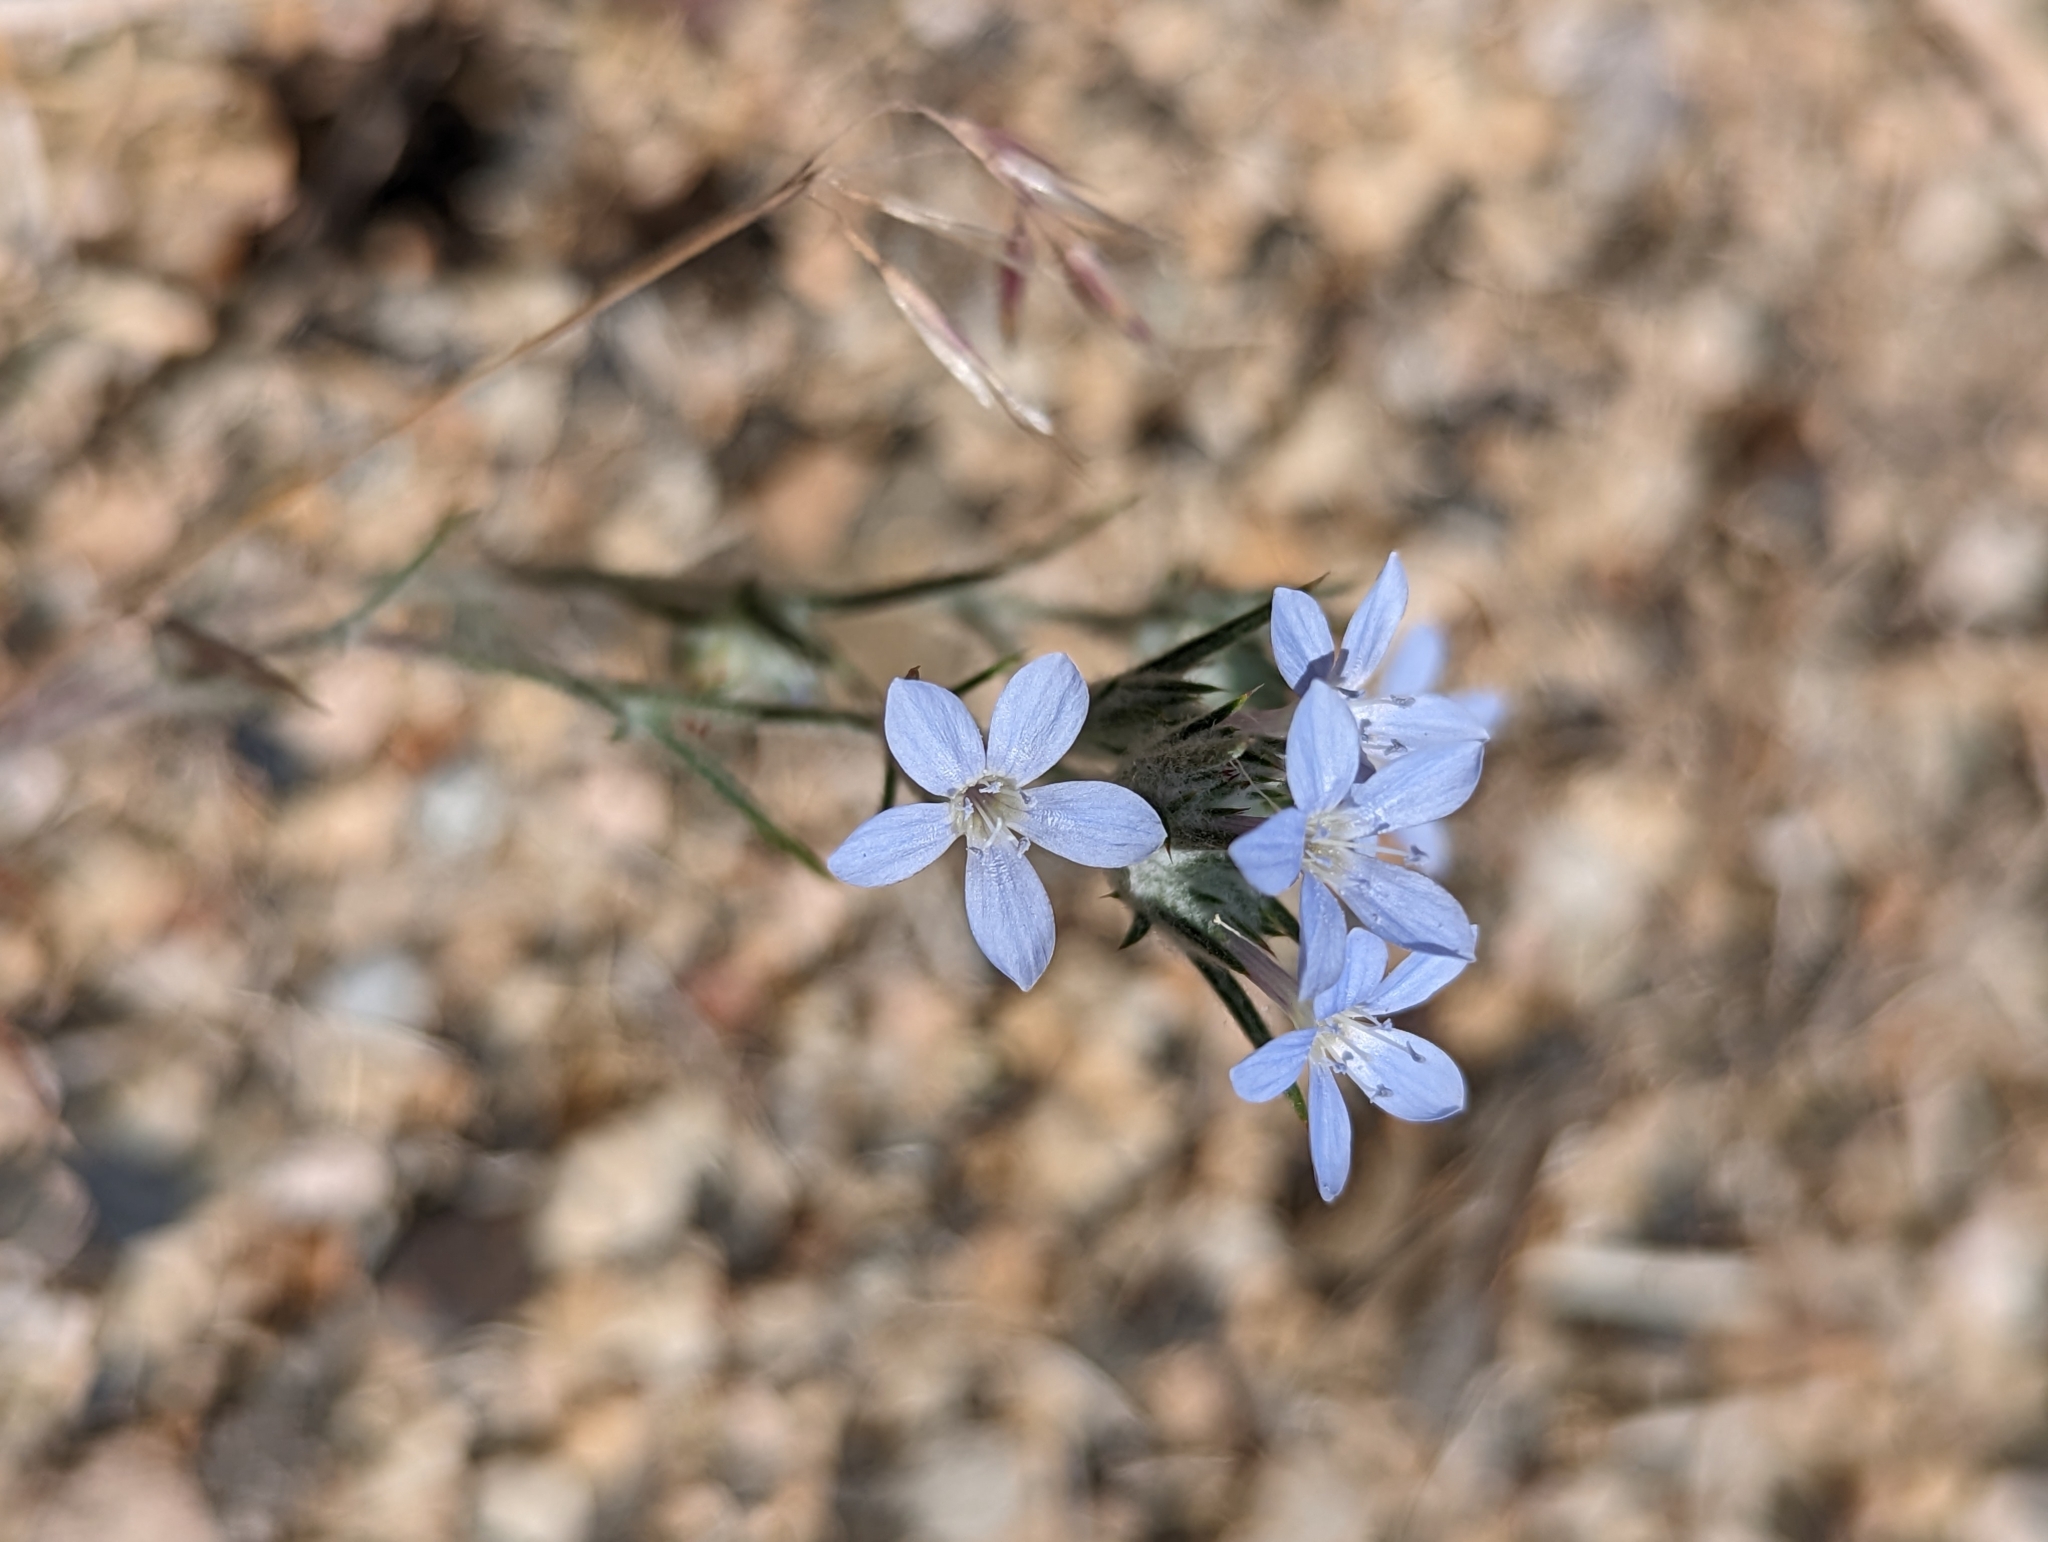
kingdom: Plantae
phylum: Tracheophyta
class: Magnoliopsida
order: Ericales
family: Polemoniaceae
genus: Eriastrum
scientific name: Eriastrum wilcoxii
